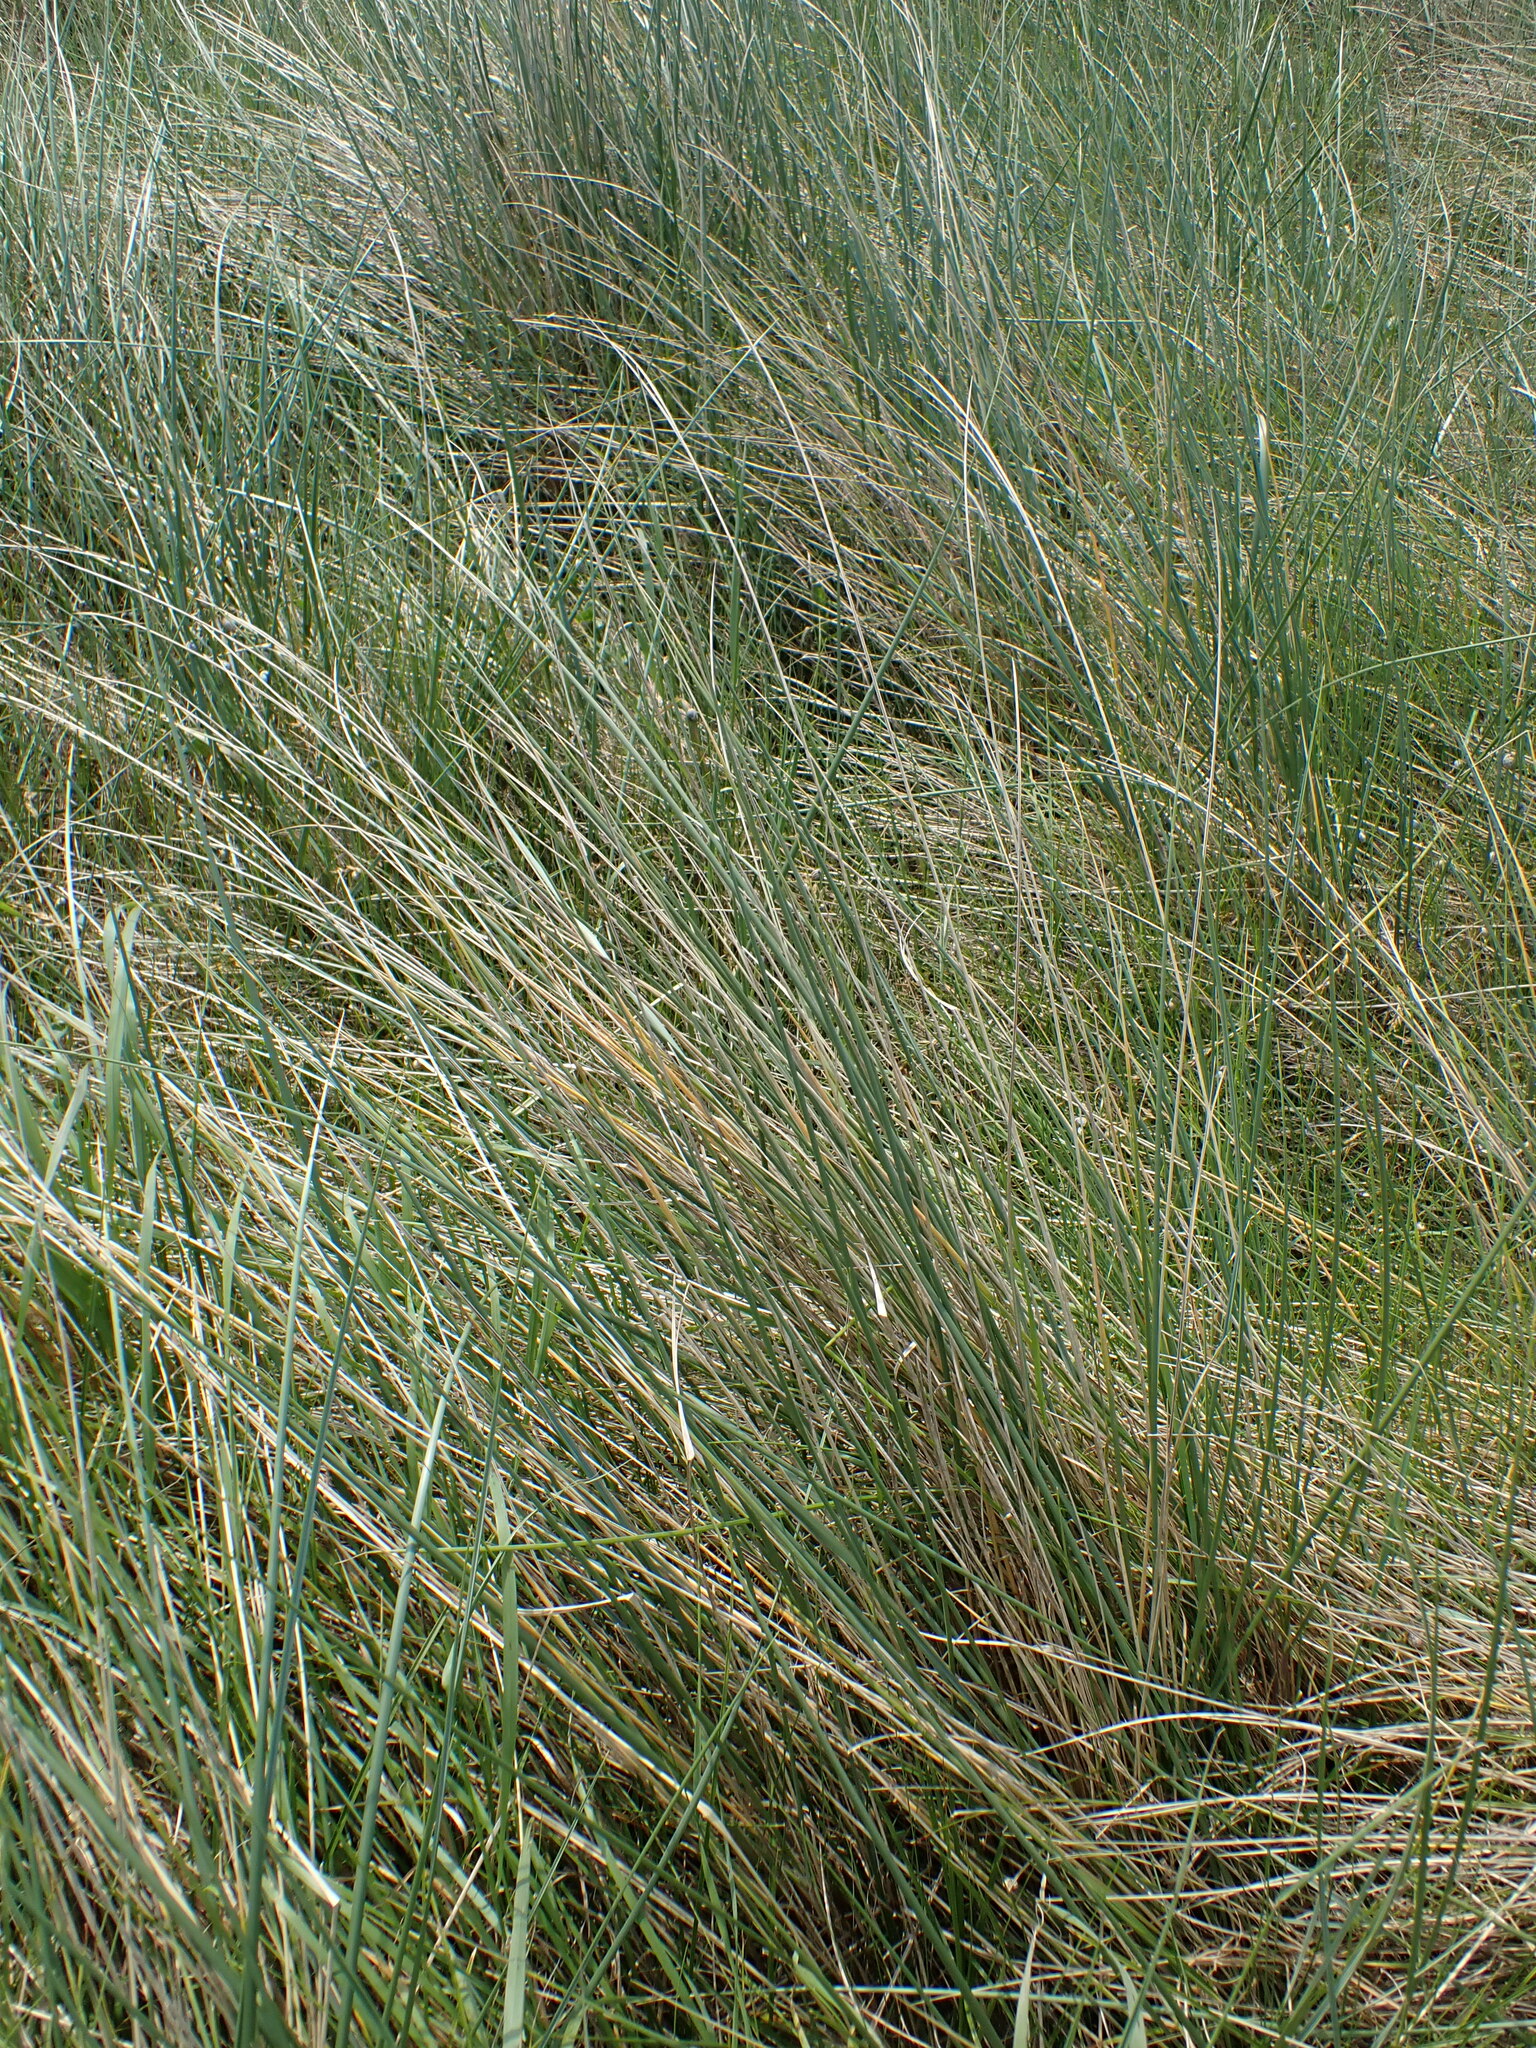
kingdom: Plantae
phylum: Tracheophyta
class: Liliopsida
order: Poales
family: Poaceae
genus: Calamagrostis
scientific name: Calamagrostis arenaria
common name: European beachgrass
